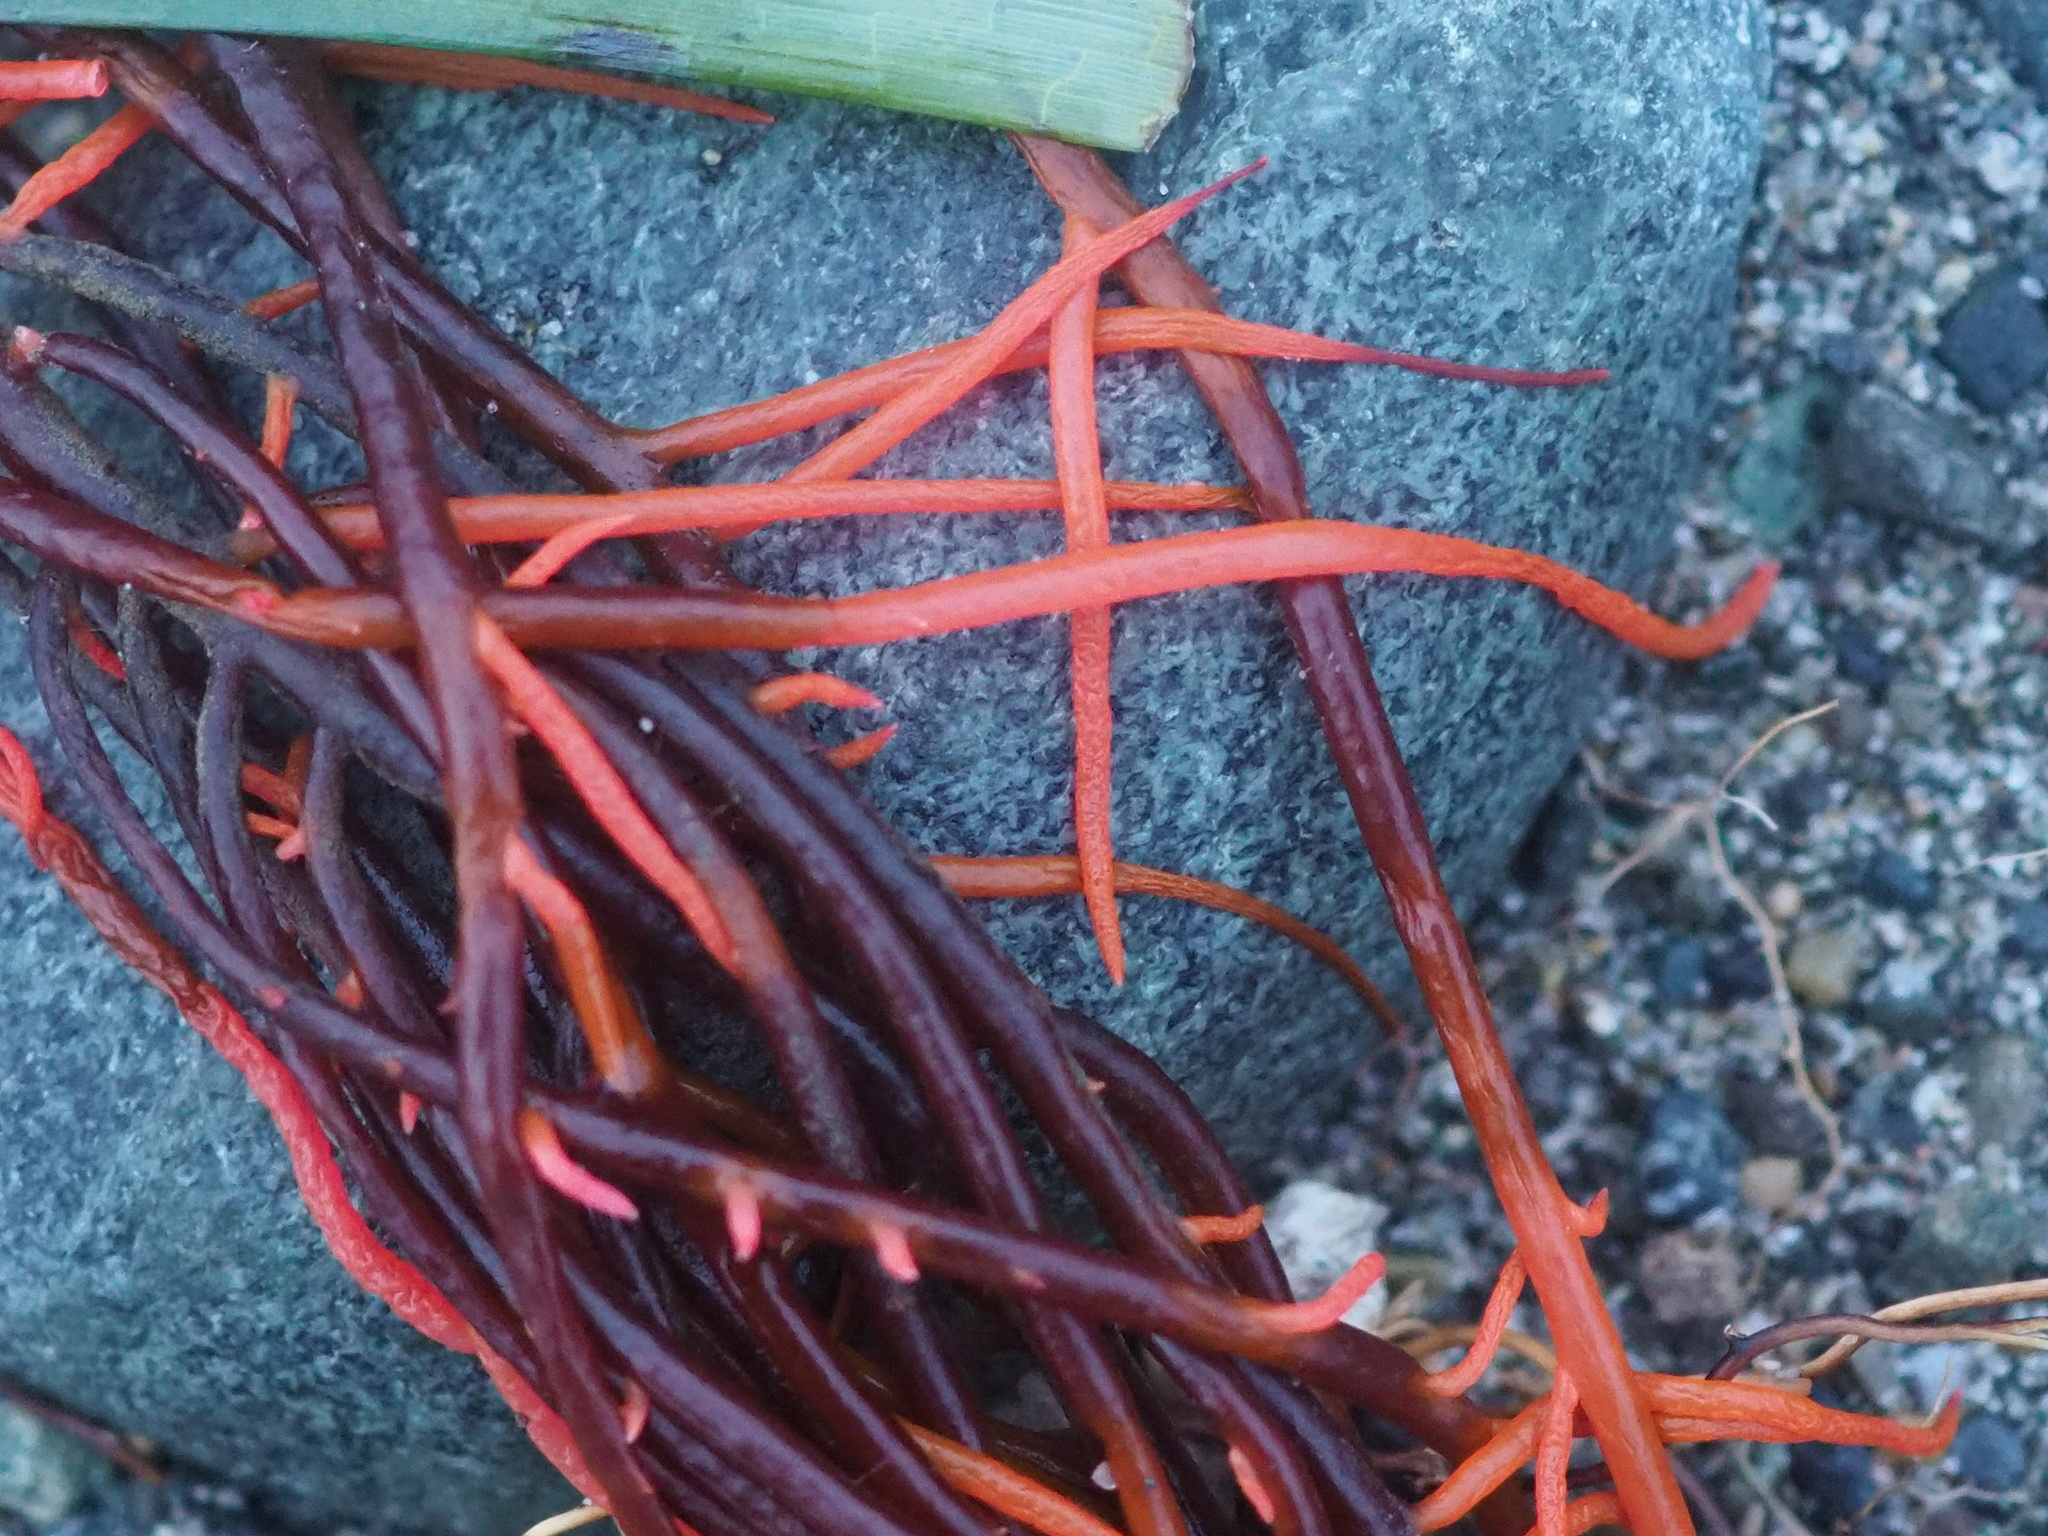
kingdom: Plantae
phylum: Rhodophyta
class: Florideophyceae
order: Gigartinales
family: Solieriaceae
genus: Sarcodiotheca
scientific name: Sarcodiotheca gaudichaudii
